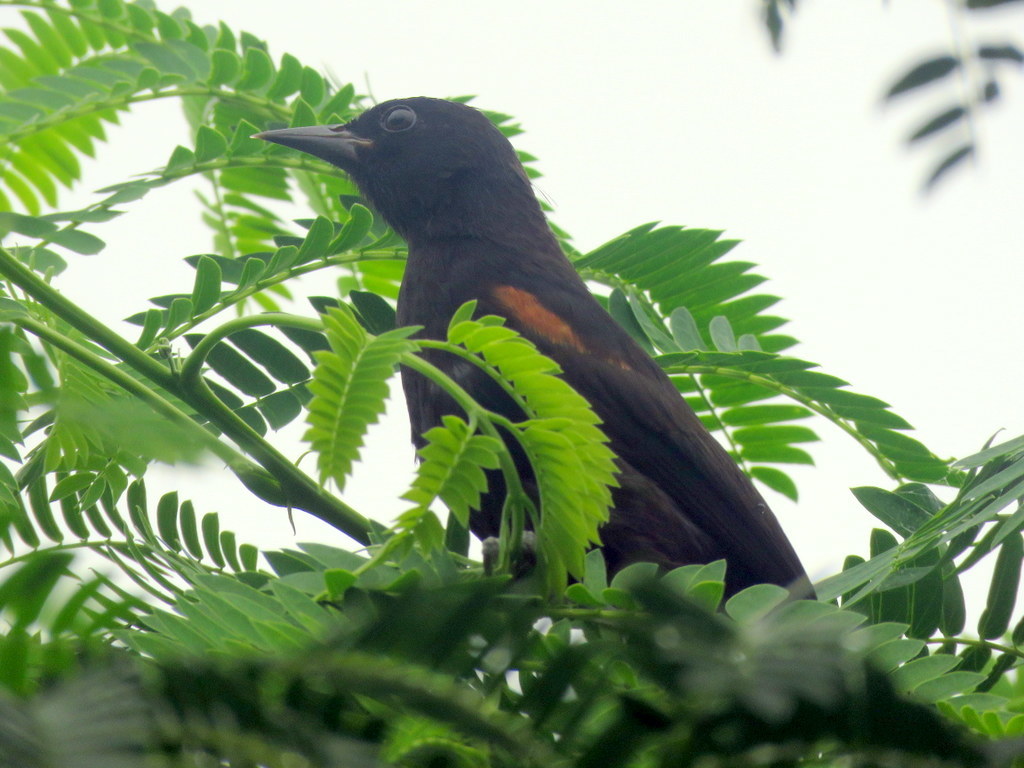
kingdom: Animalia
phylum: Chordata
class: Aves
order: Passeriformes
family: Icteridae
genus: Icterus
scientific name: Icterus cayanensis
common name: Epaulet oriole
